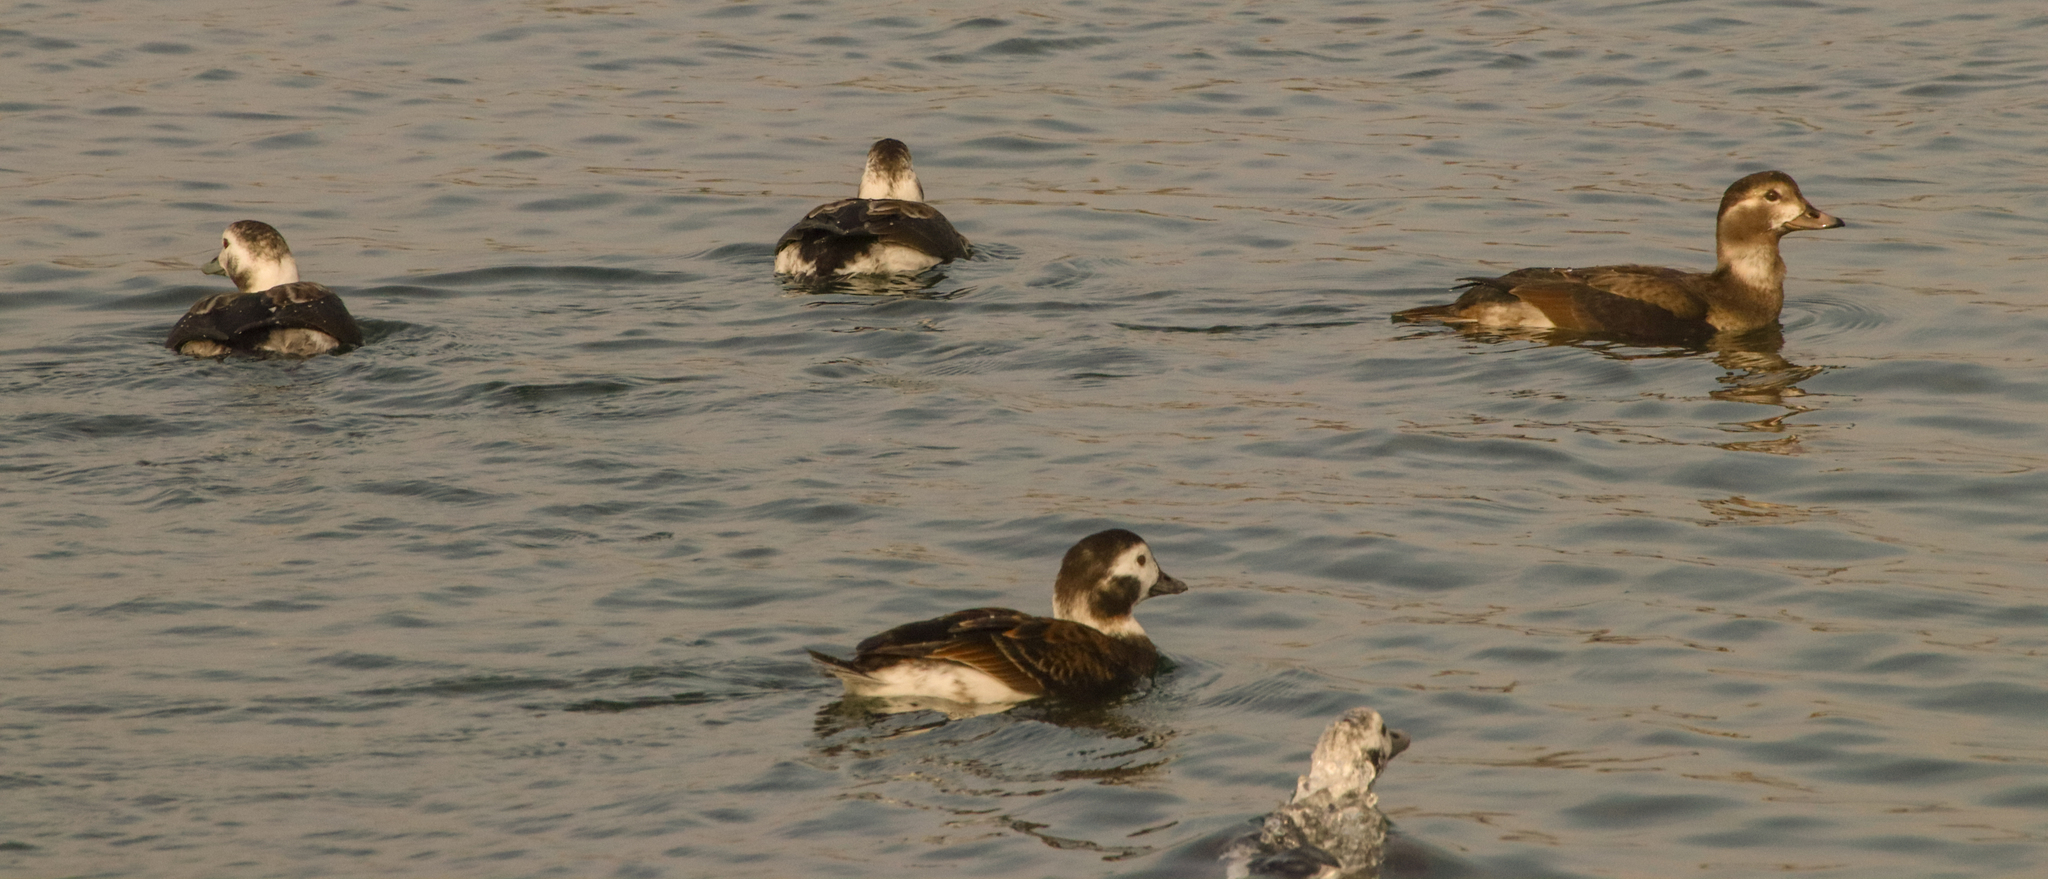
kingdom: Animalia
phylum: Chordata
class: Aves
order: Anseriformes
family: Anatidae
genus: Clangula
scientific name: Clangula hyemalis
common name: Long-tailed duck
